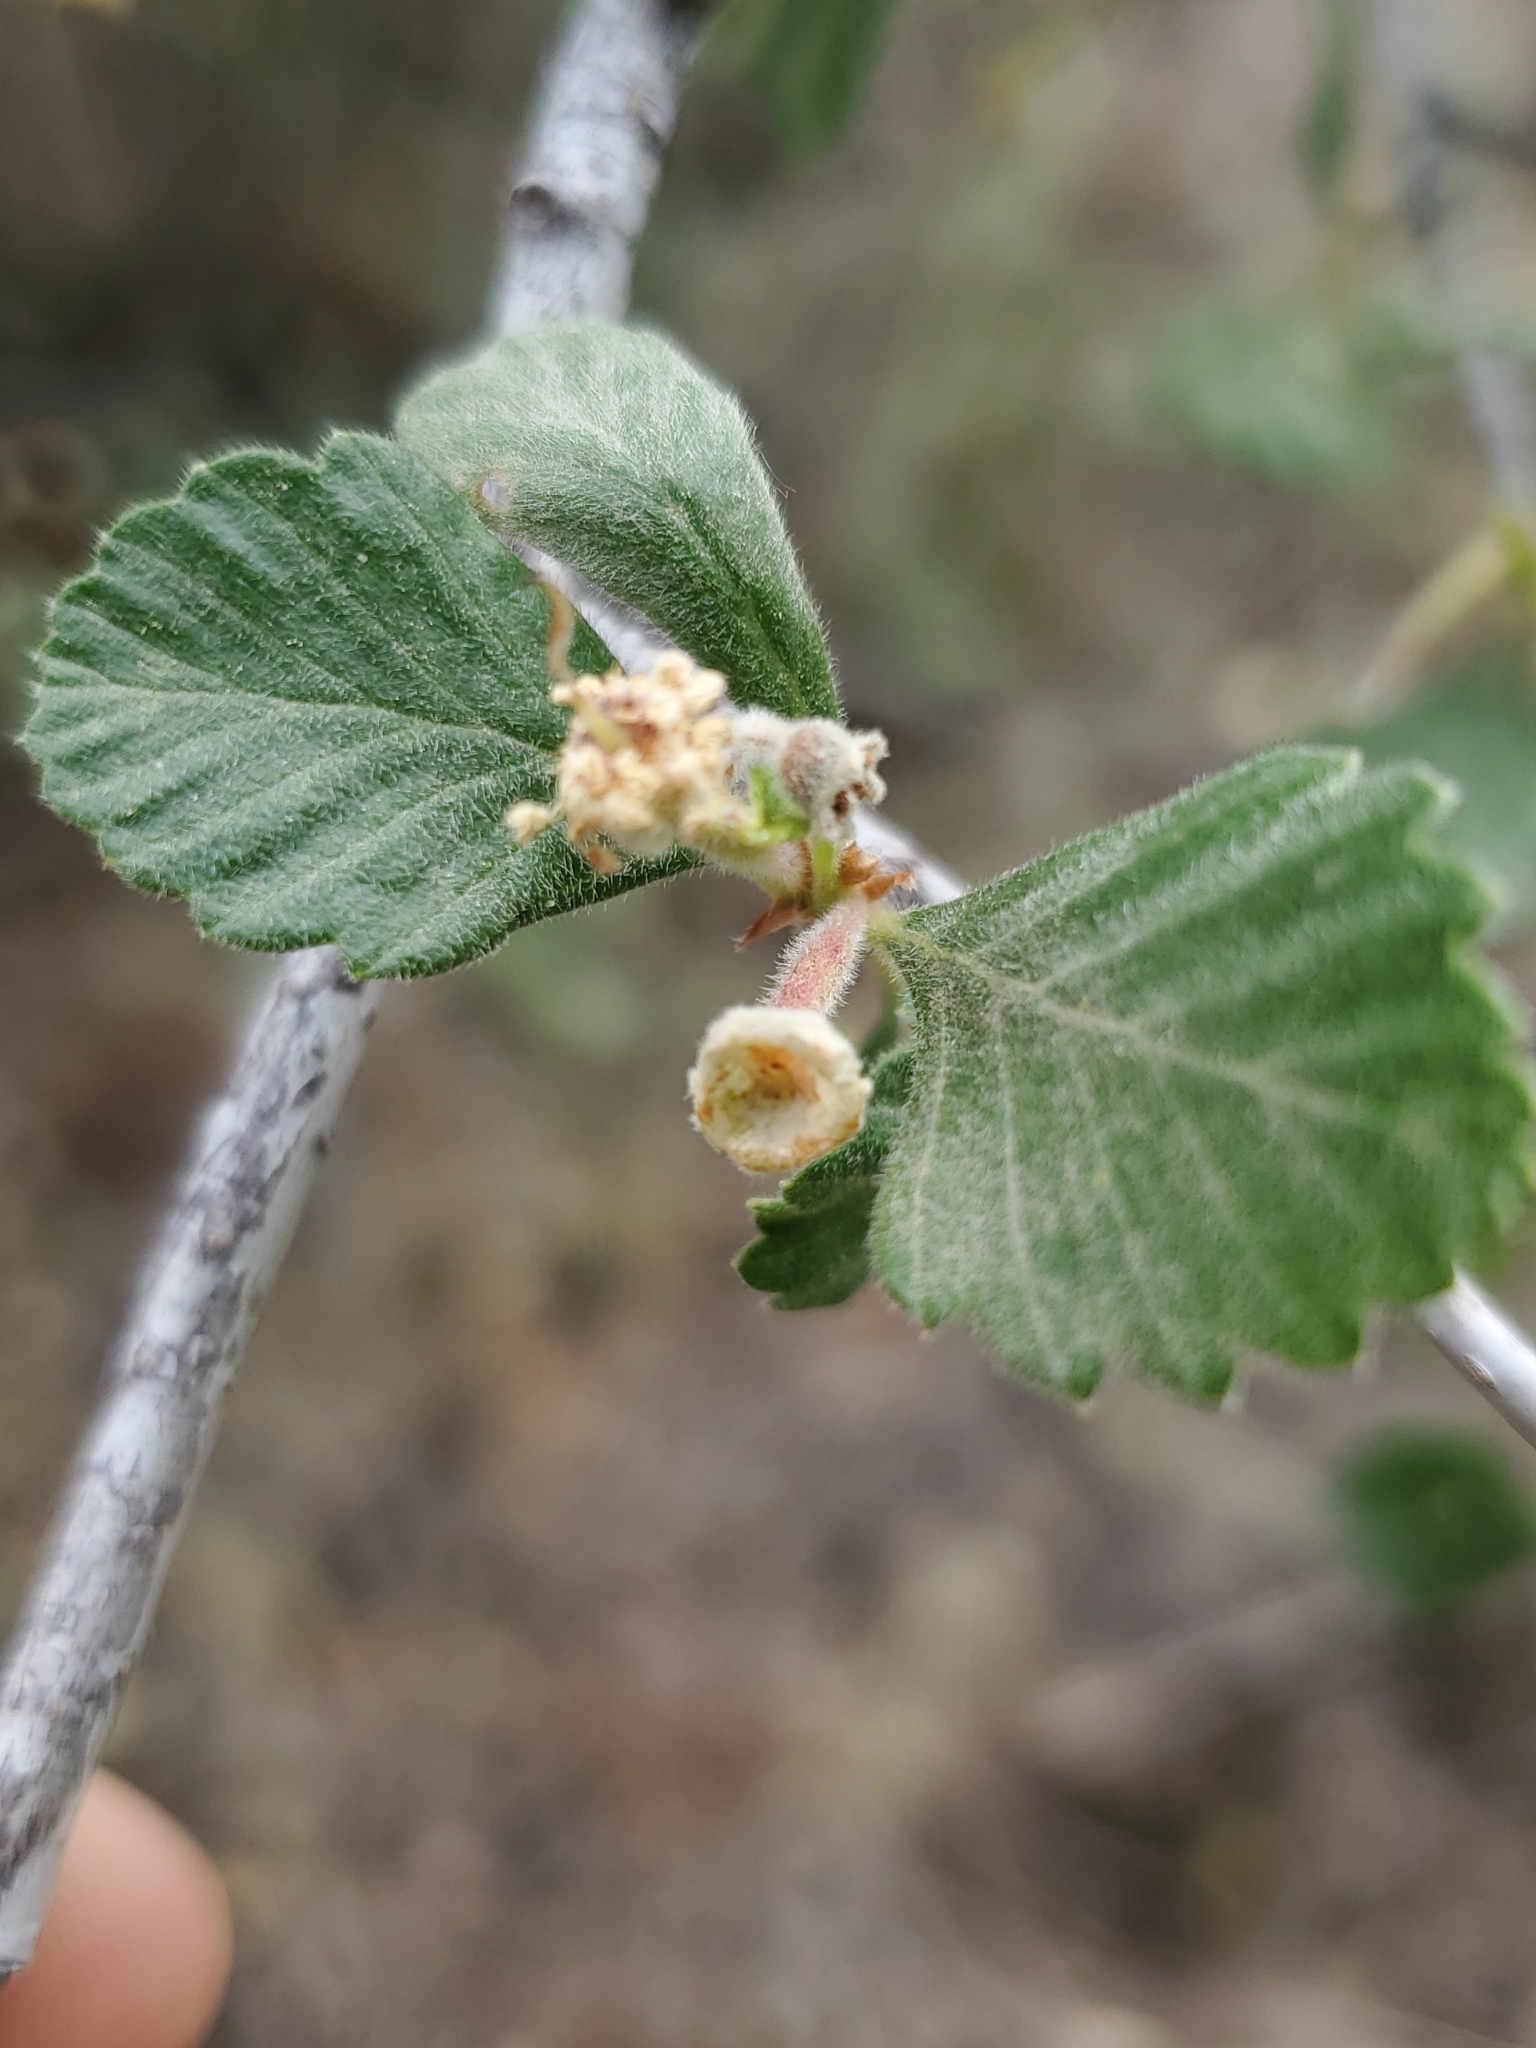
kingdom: Plantae
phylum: Tracheophyta
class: Magnoliopsida
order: Rosales
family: Rosaceae
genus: Cercocarpus
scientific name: Cercocarpus montanus
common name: Alder-leaf cercocarpus
